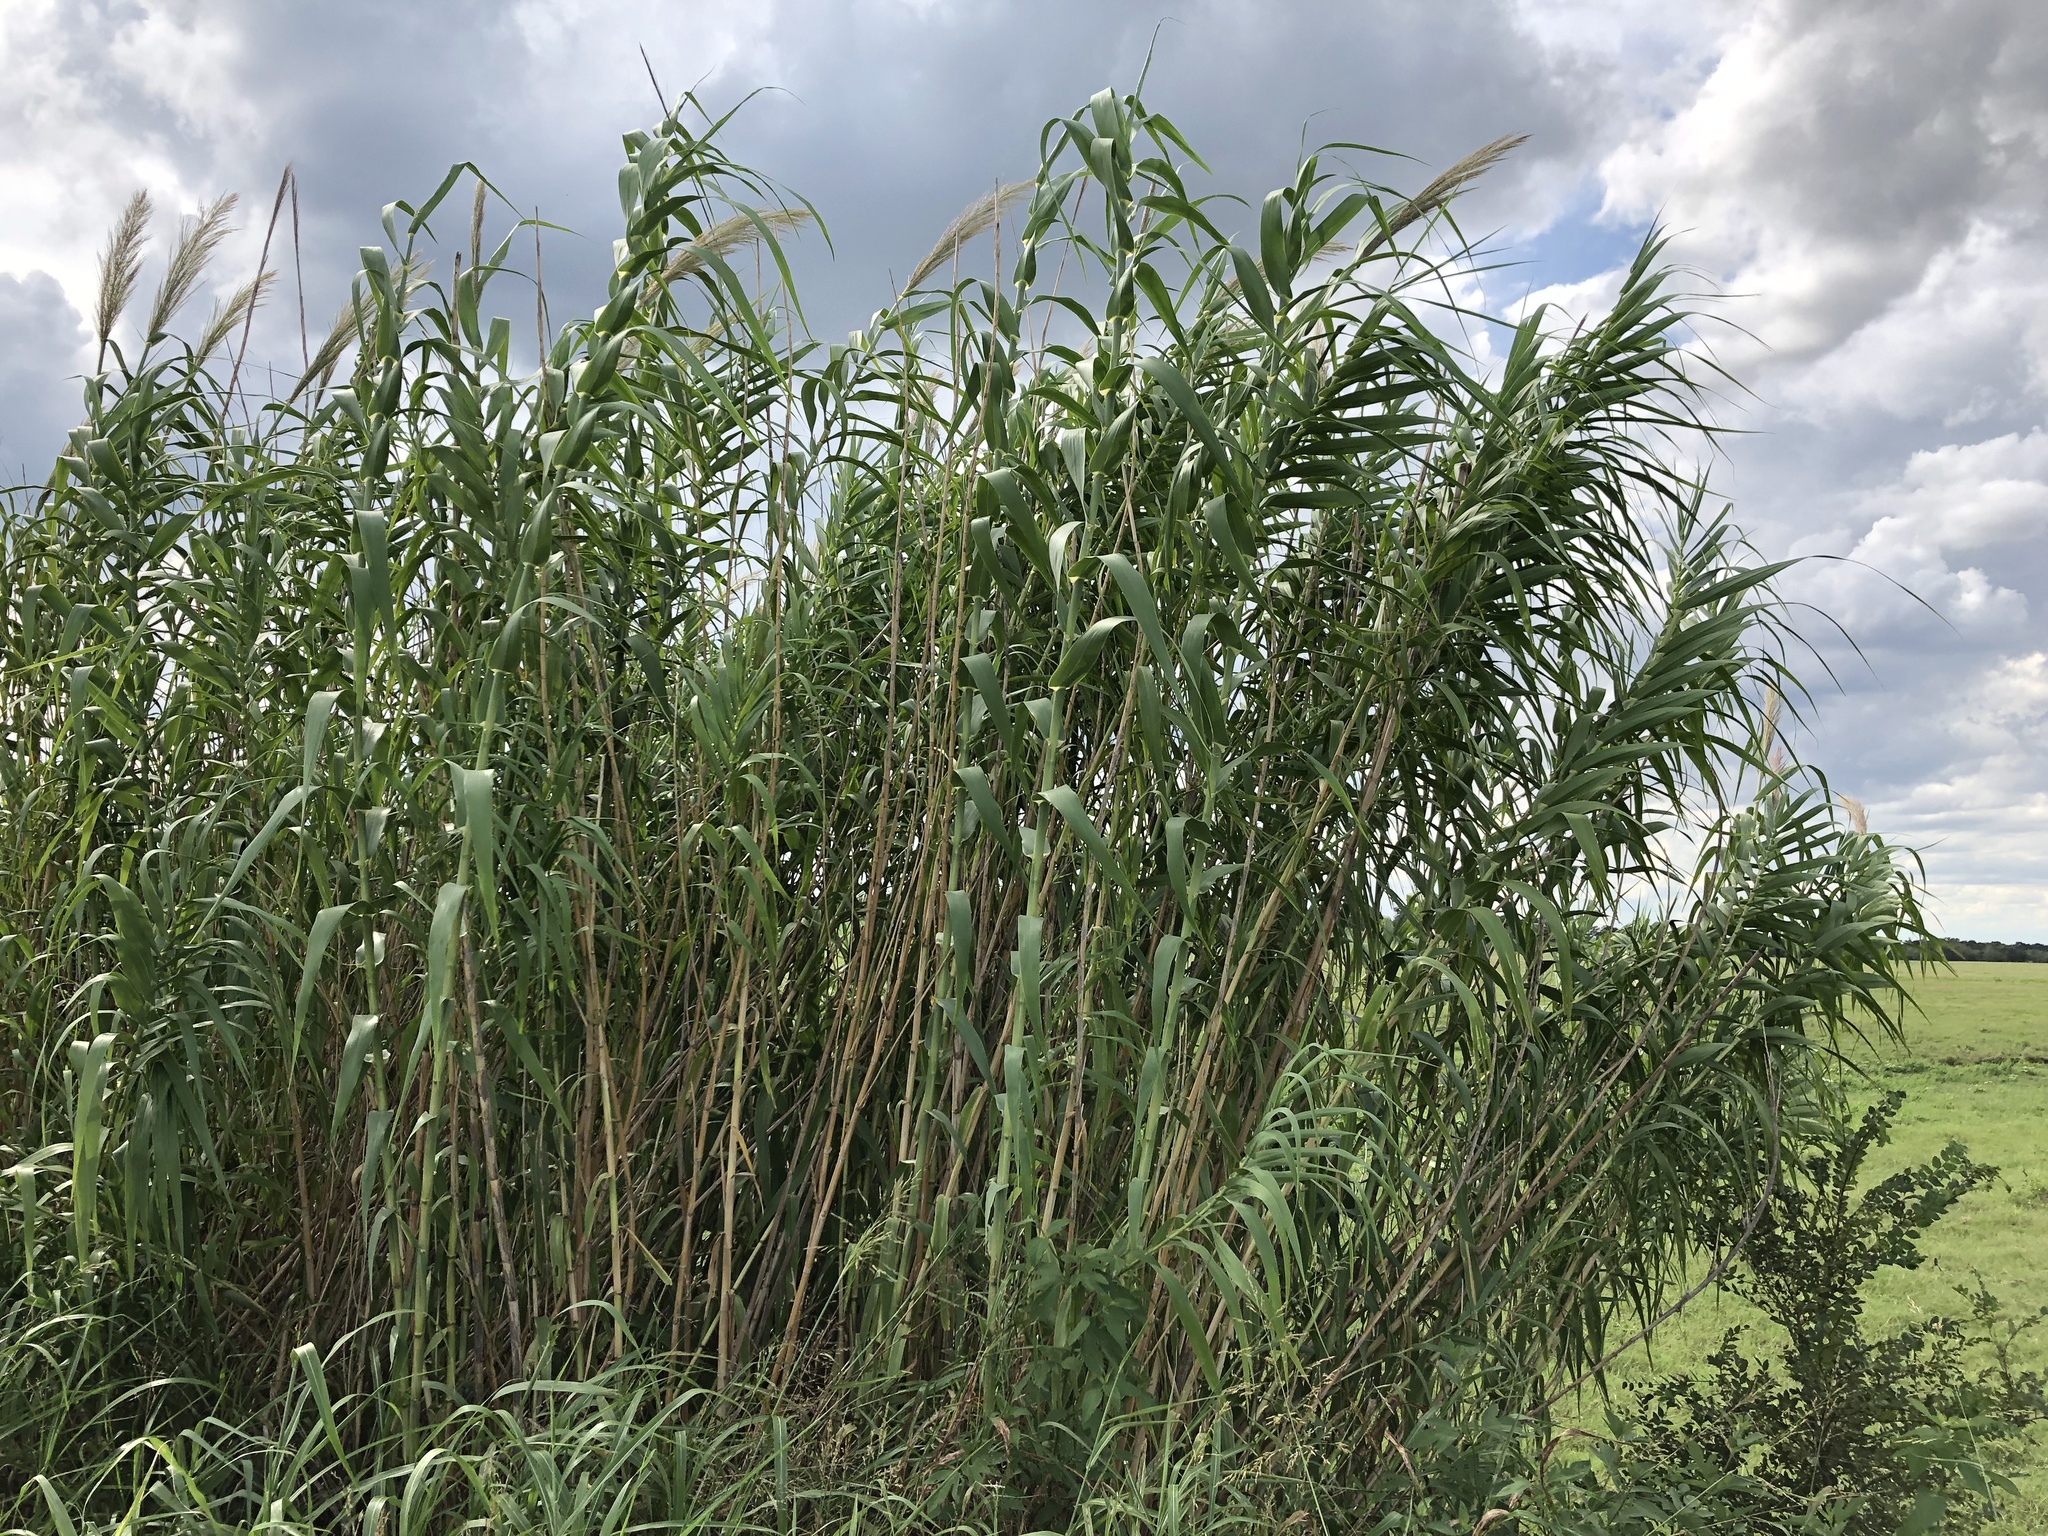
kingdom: Plantae
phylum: Tracheophyta
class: Liliopsida
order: Poales
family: Poaceae
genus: Arundo
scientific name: Arundo donax
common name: Giant reed
